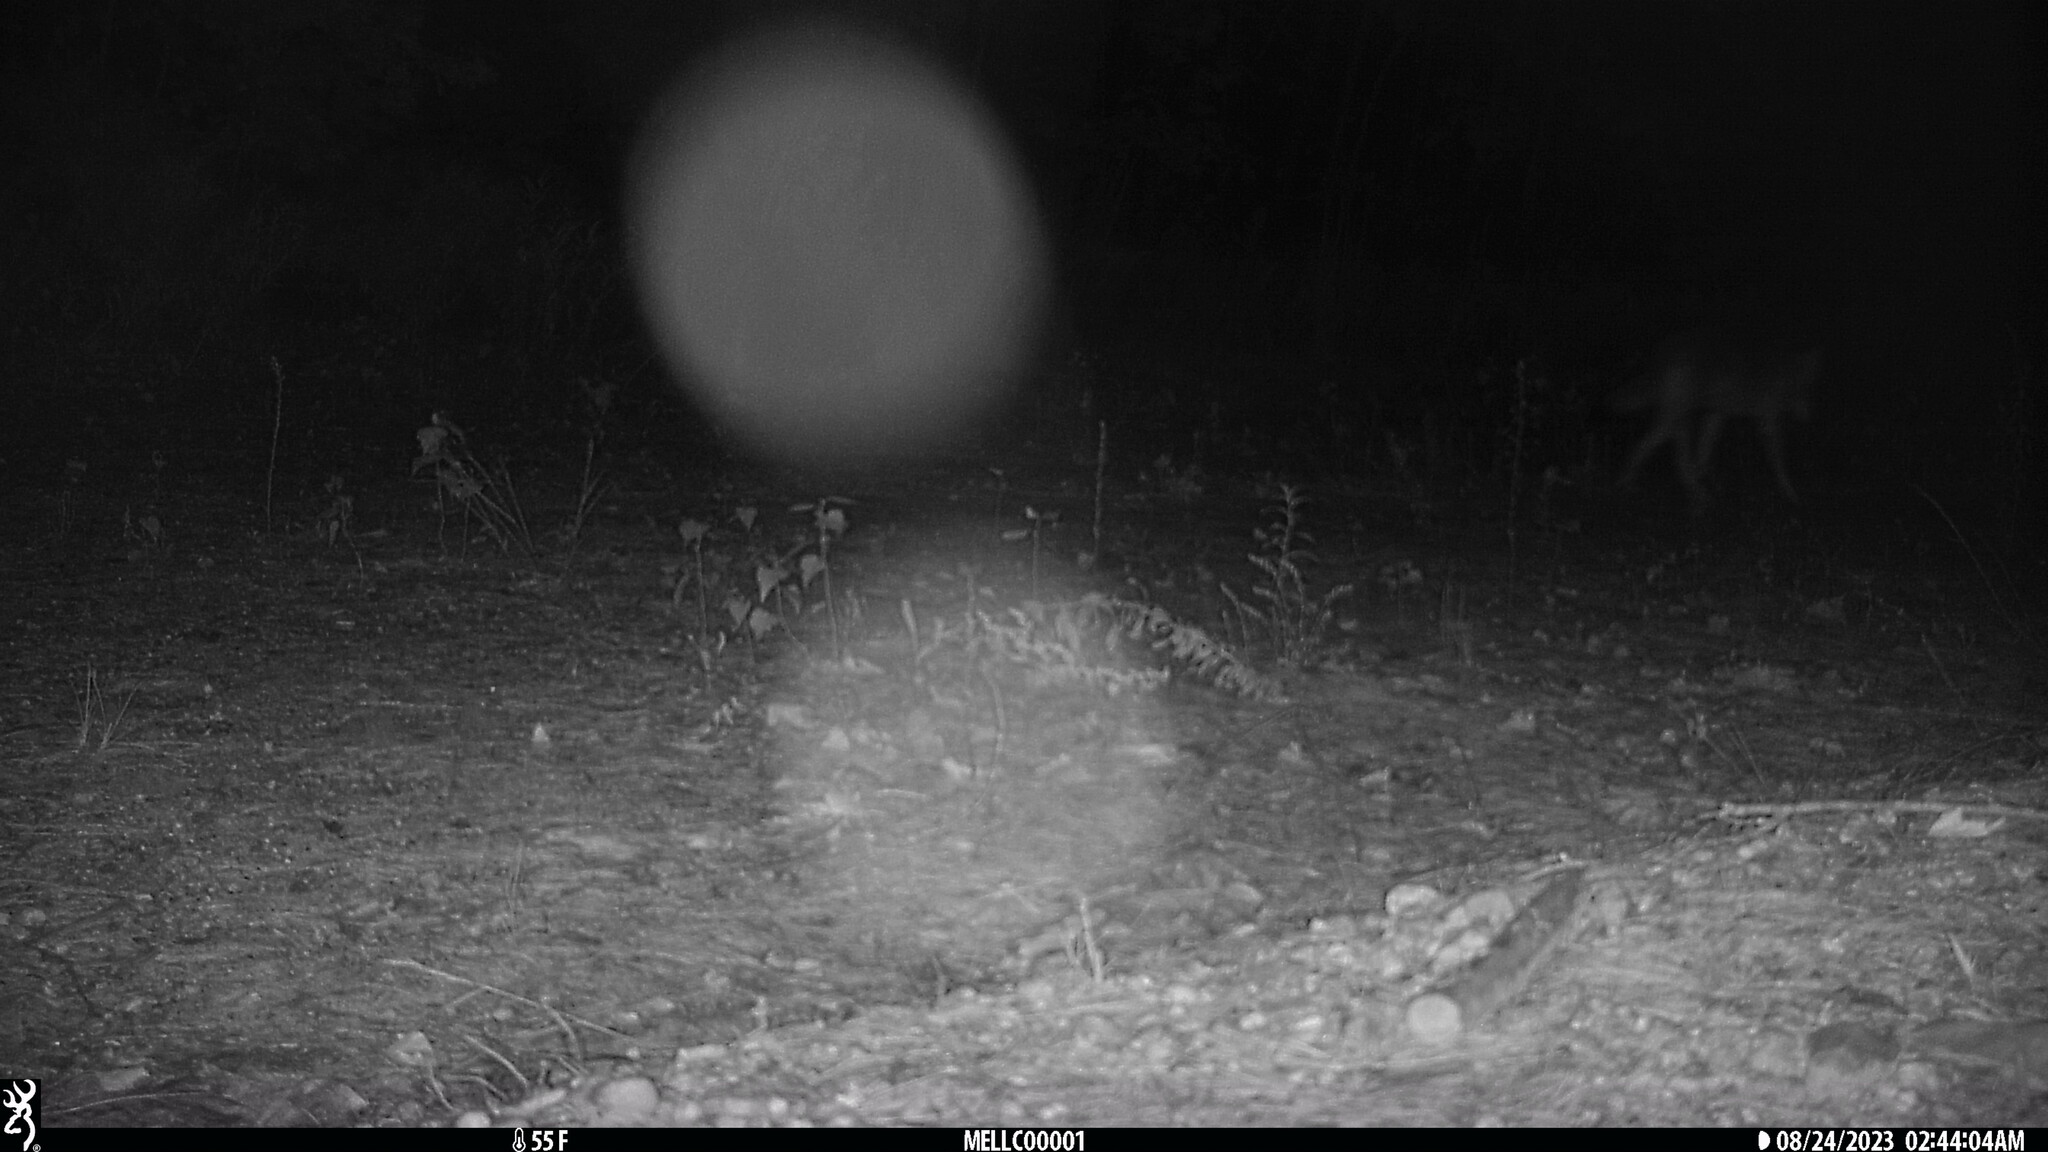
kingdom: Animalia
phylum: Chordata
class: Mammalia
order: Carnivora
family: Canidae
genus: Canis
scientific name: Canis latrans
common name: Coyote
